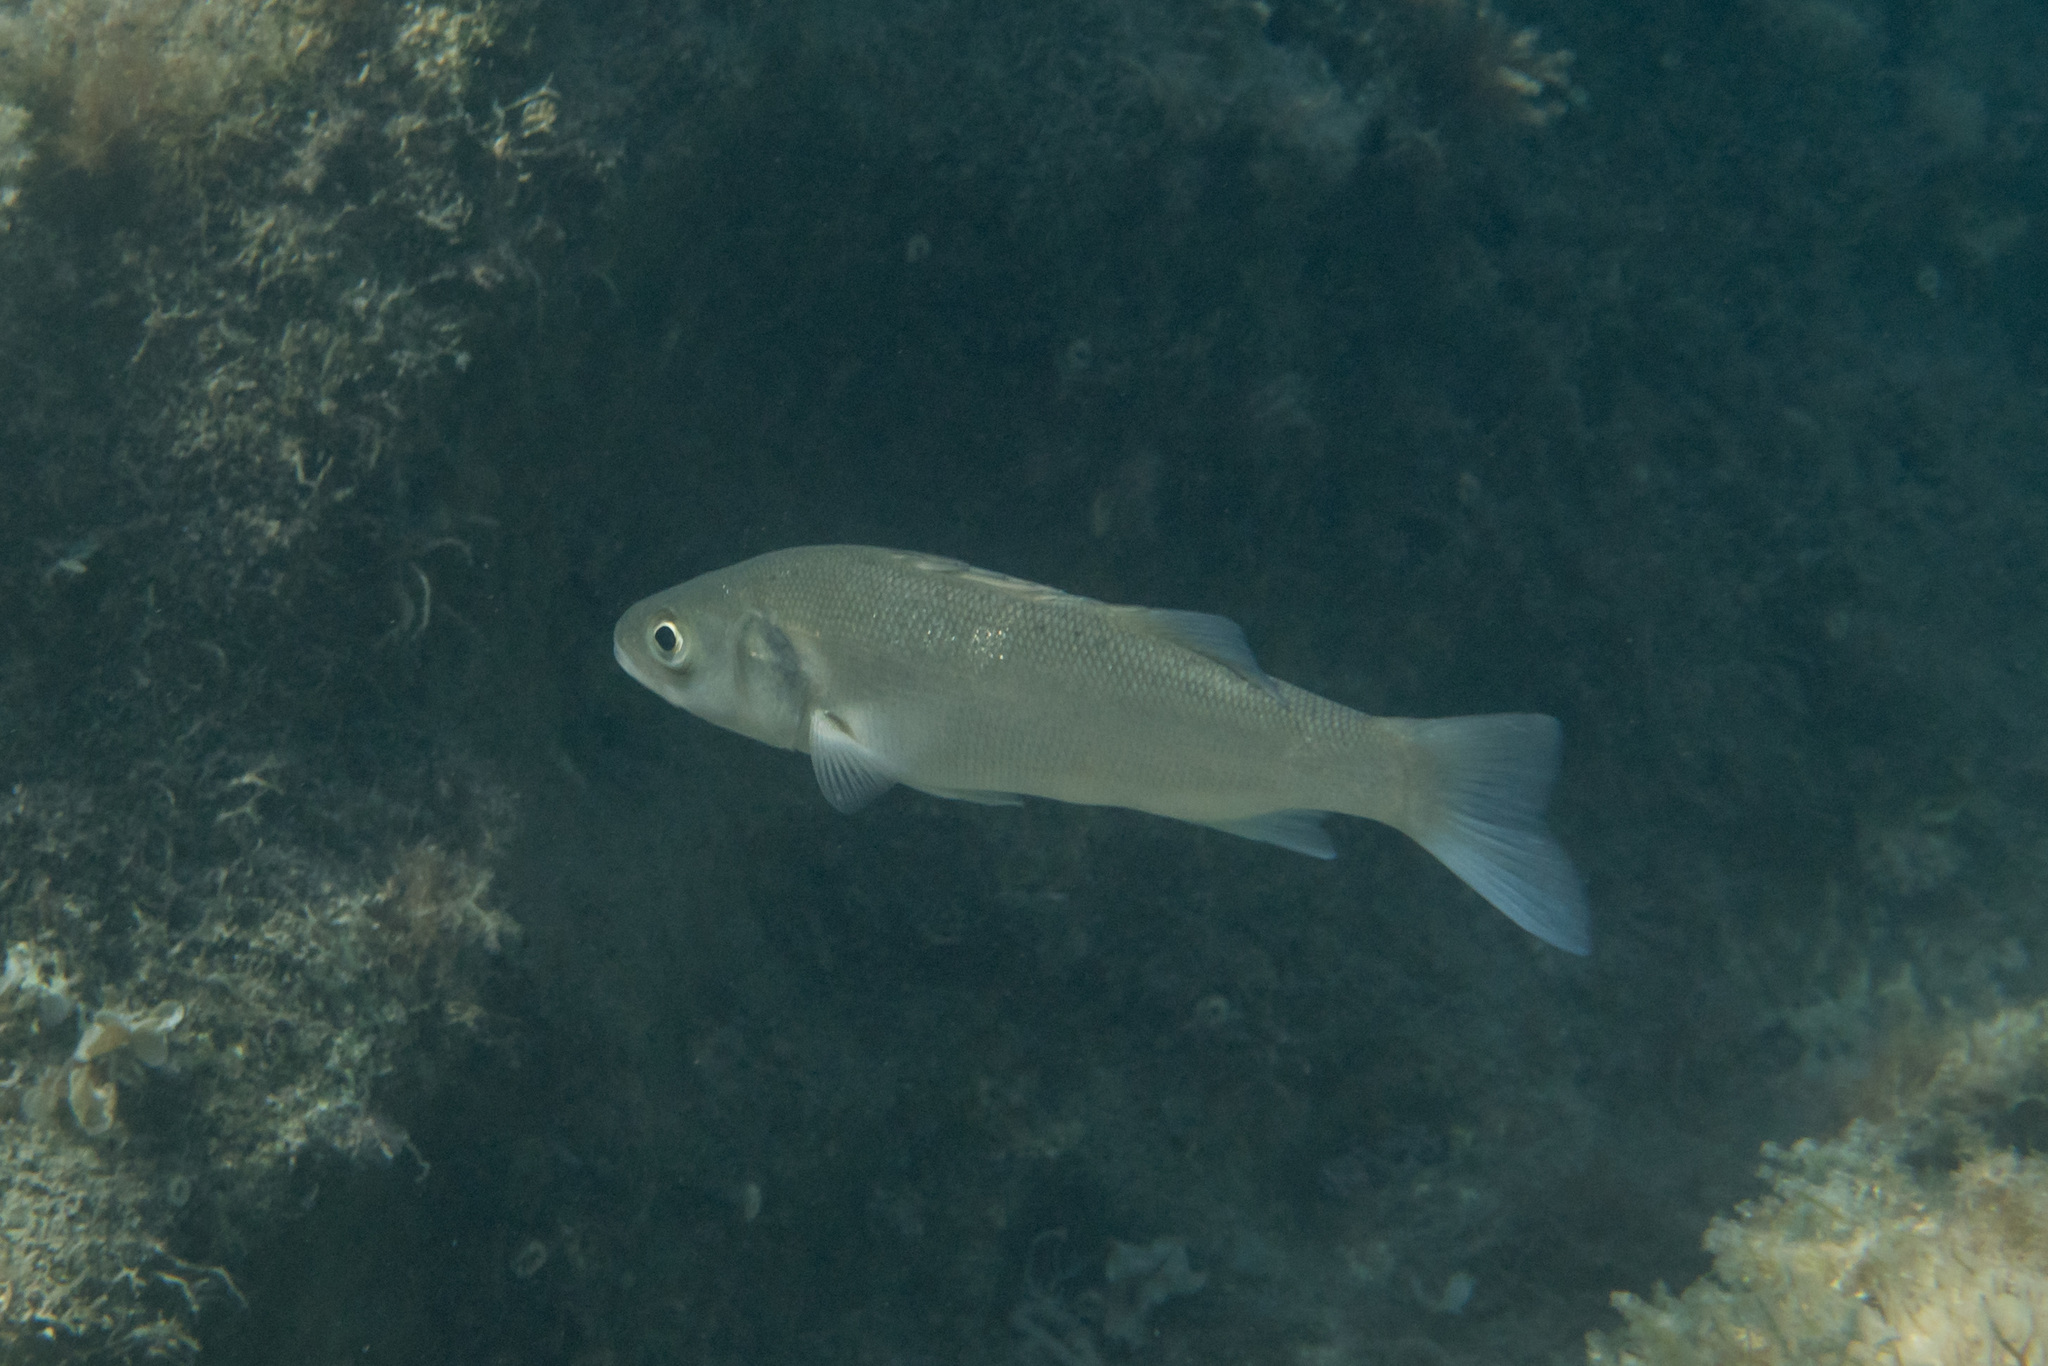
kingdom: Animalia
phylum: Chordata
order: Perciformes
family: Moronidae
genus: Dicentrarchus
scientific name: Dicentrarchus labrax
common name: European seabass
